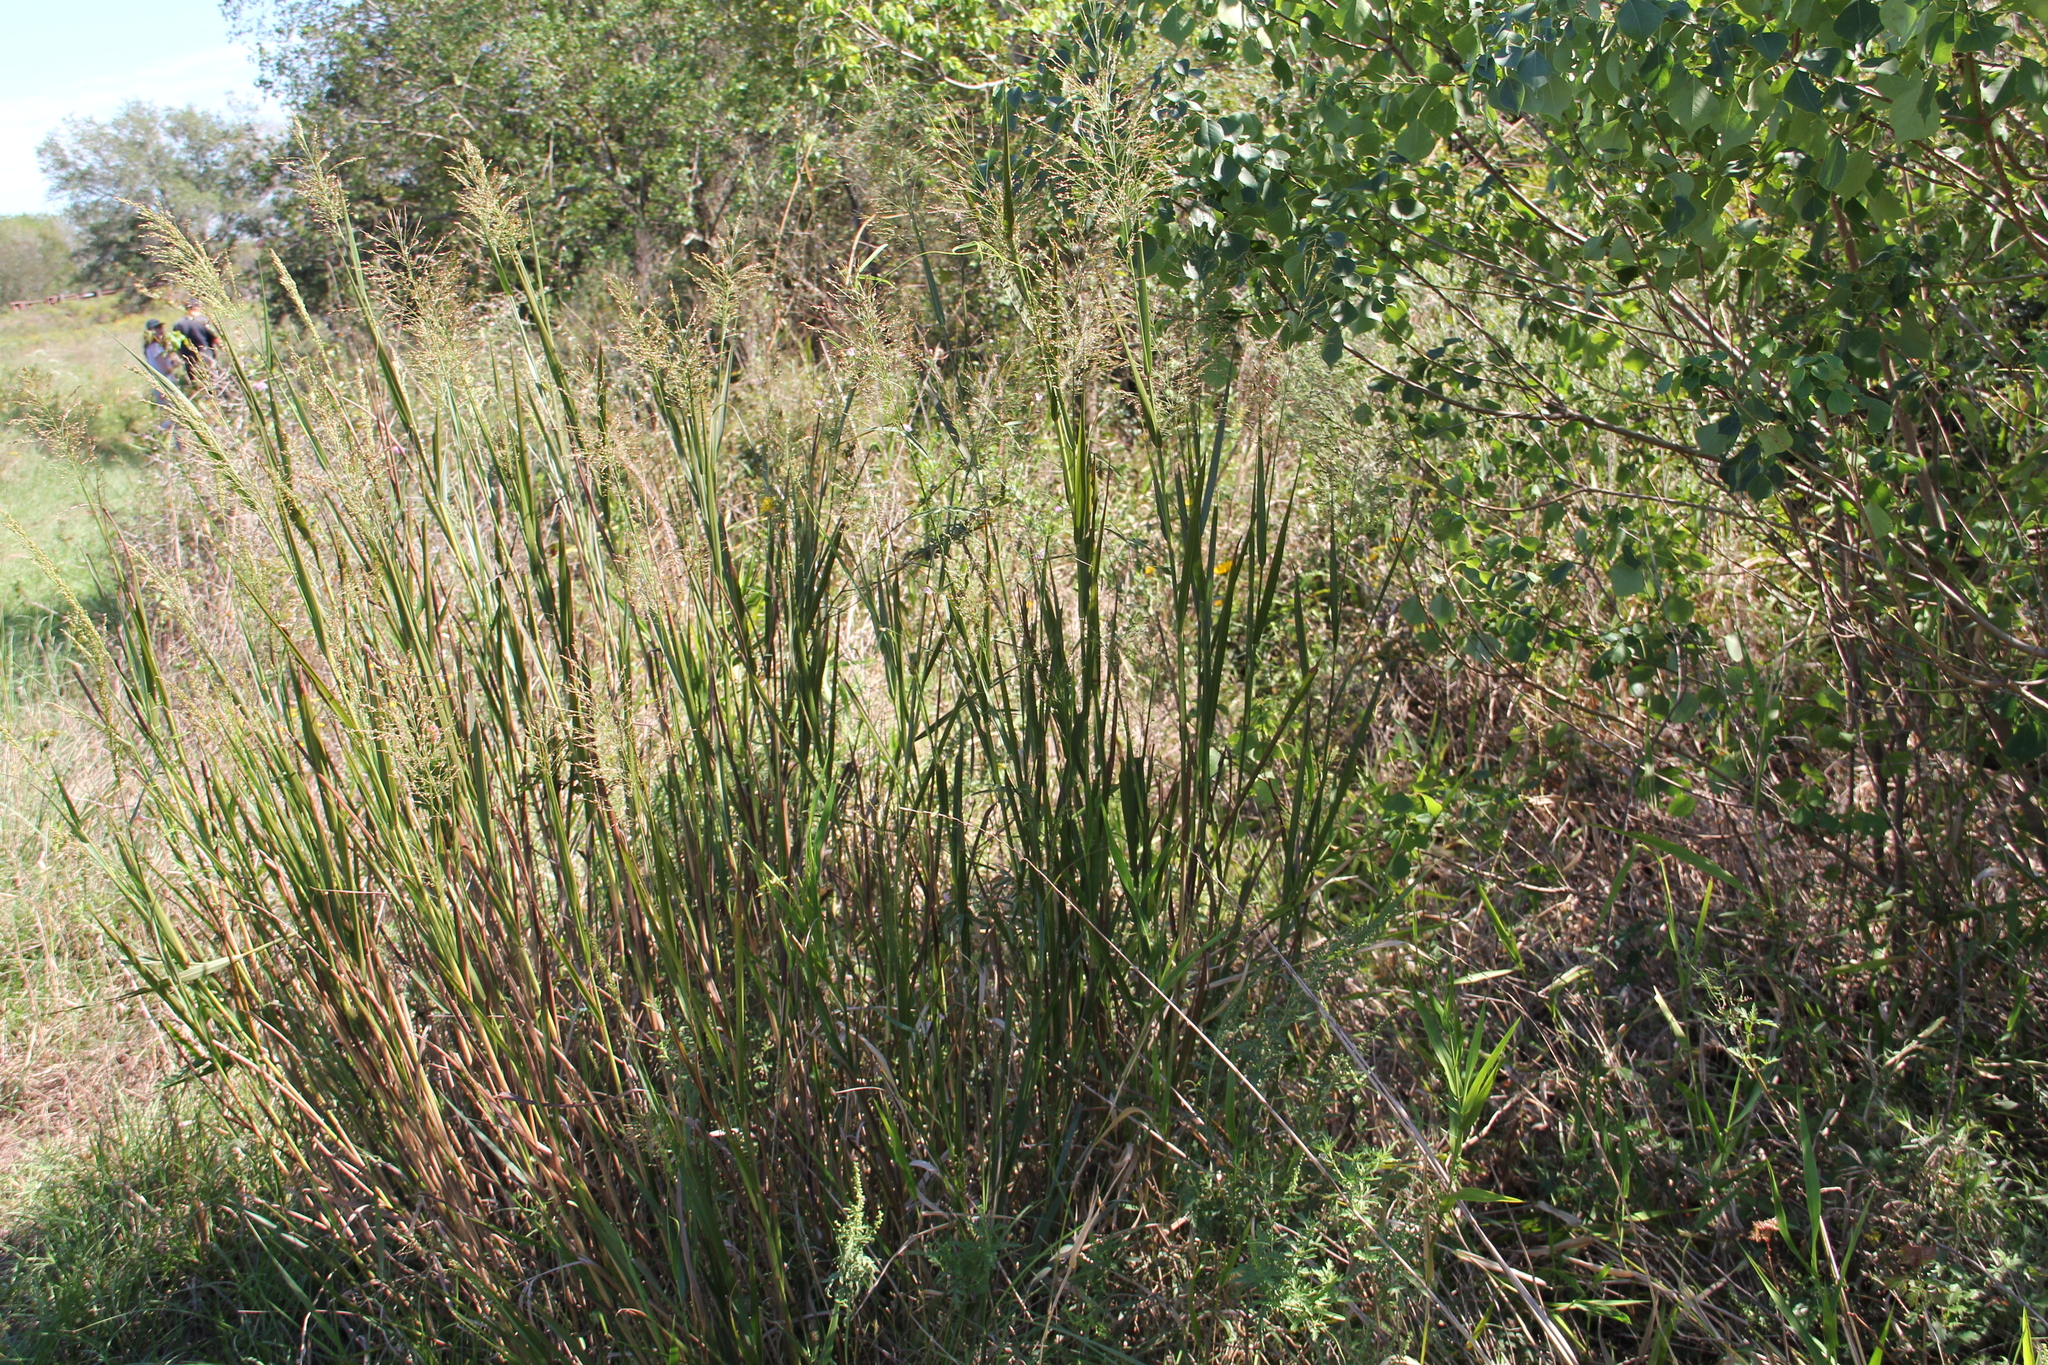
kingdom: Plantae
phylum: Tracheophyta
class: Liliopsida
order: Poales
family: Poaceae
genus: Panicum
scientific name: Panicum virgatum
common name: Switchgrass
